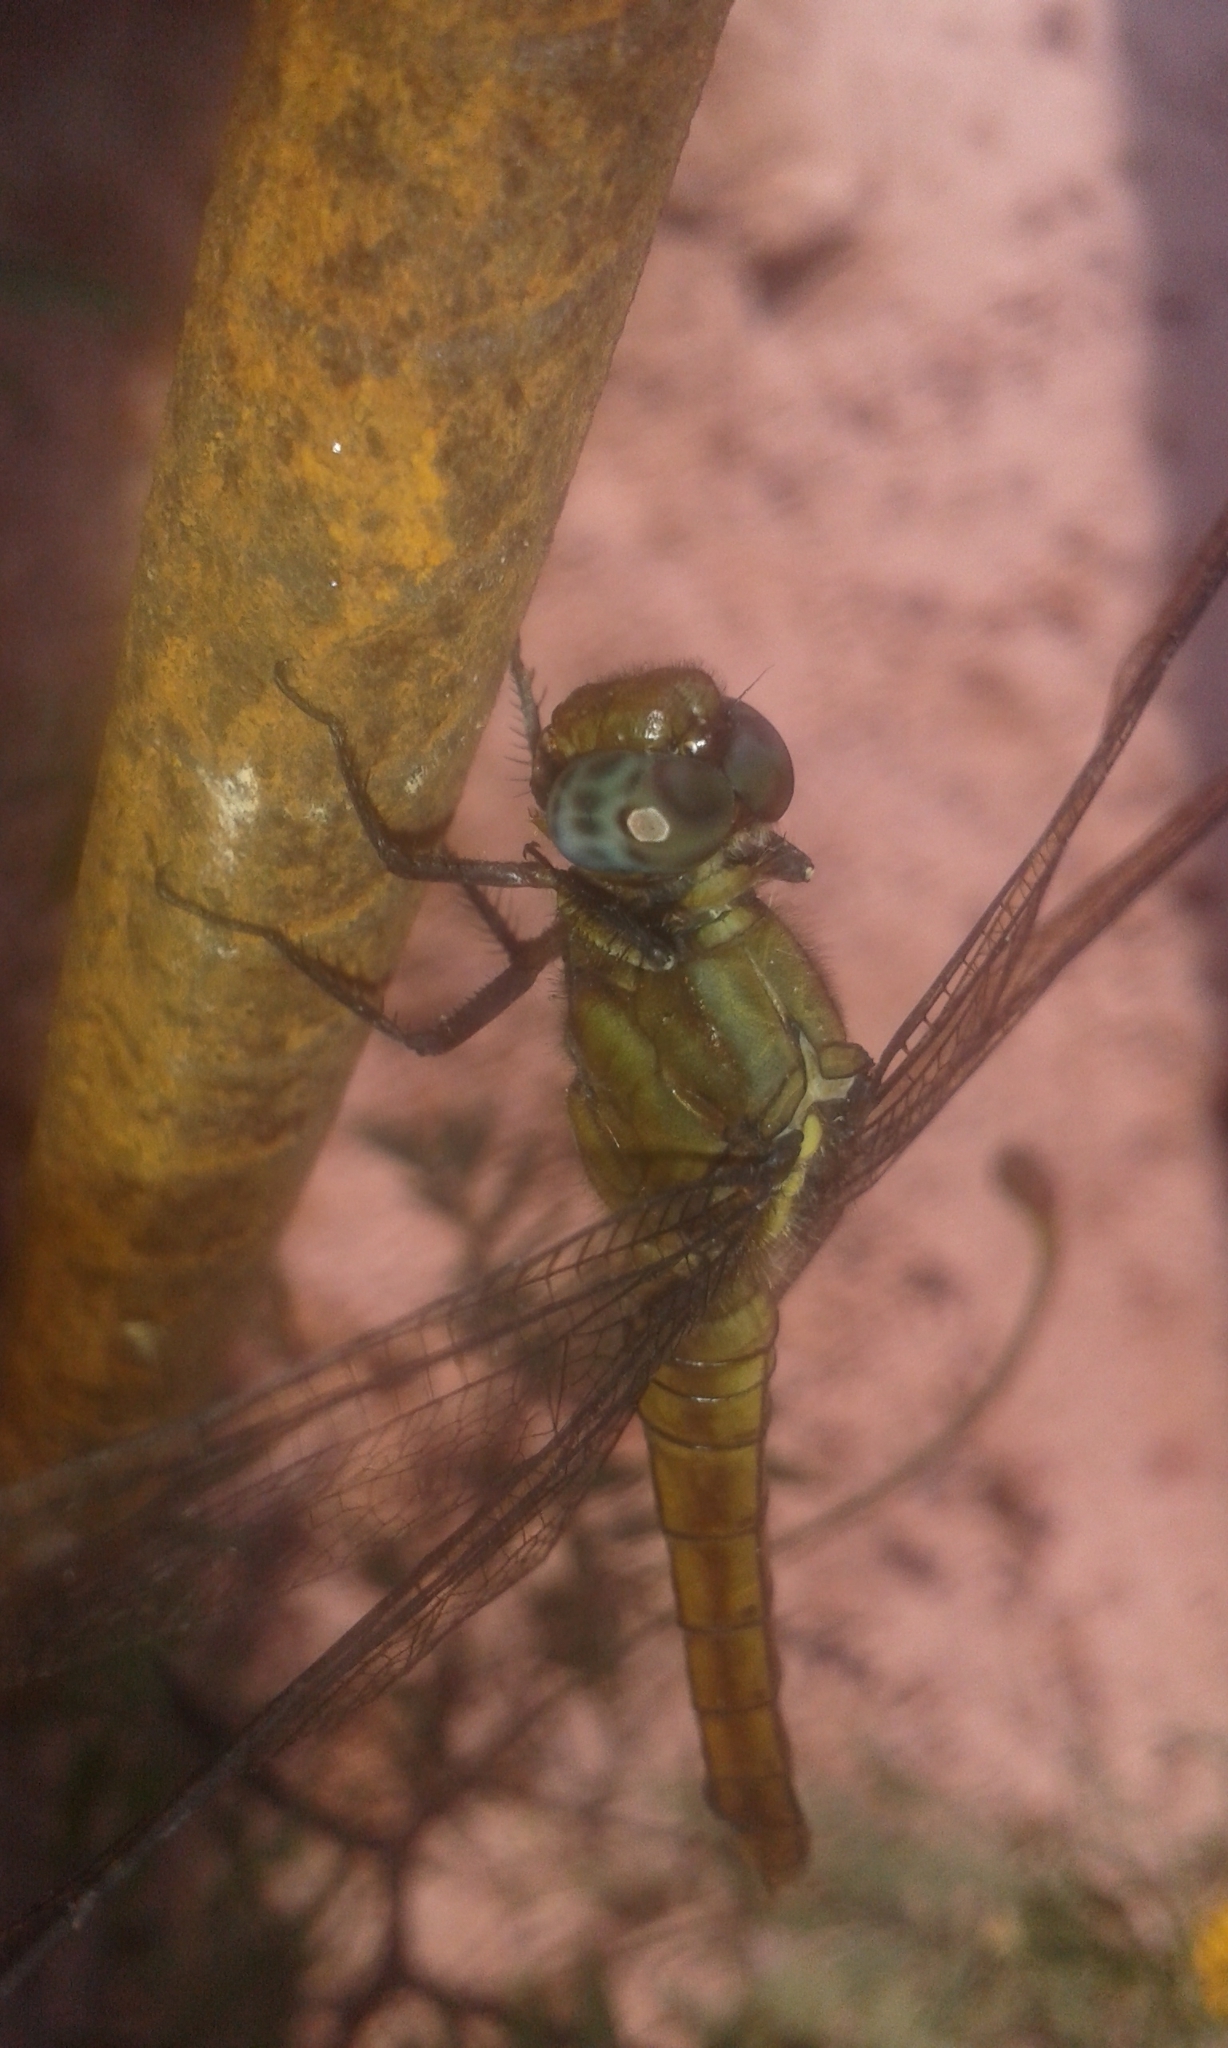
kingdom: Animalia
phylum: Arthropoda
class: Insecta
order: Odonata
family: Libellulidae
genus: Orthetrum
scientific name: Orthetrum pruinosum
